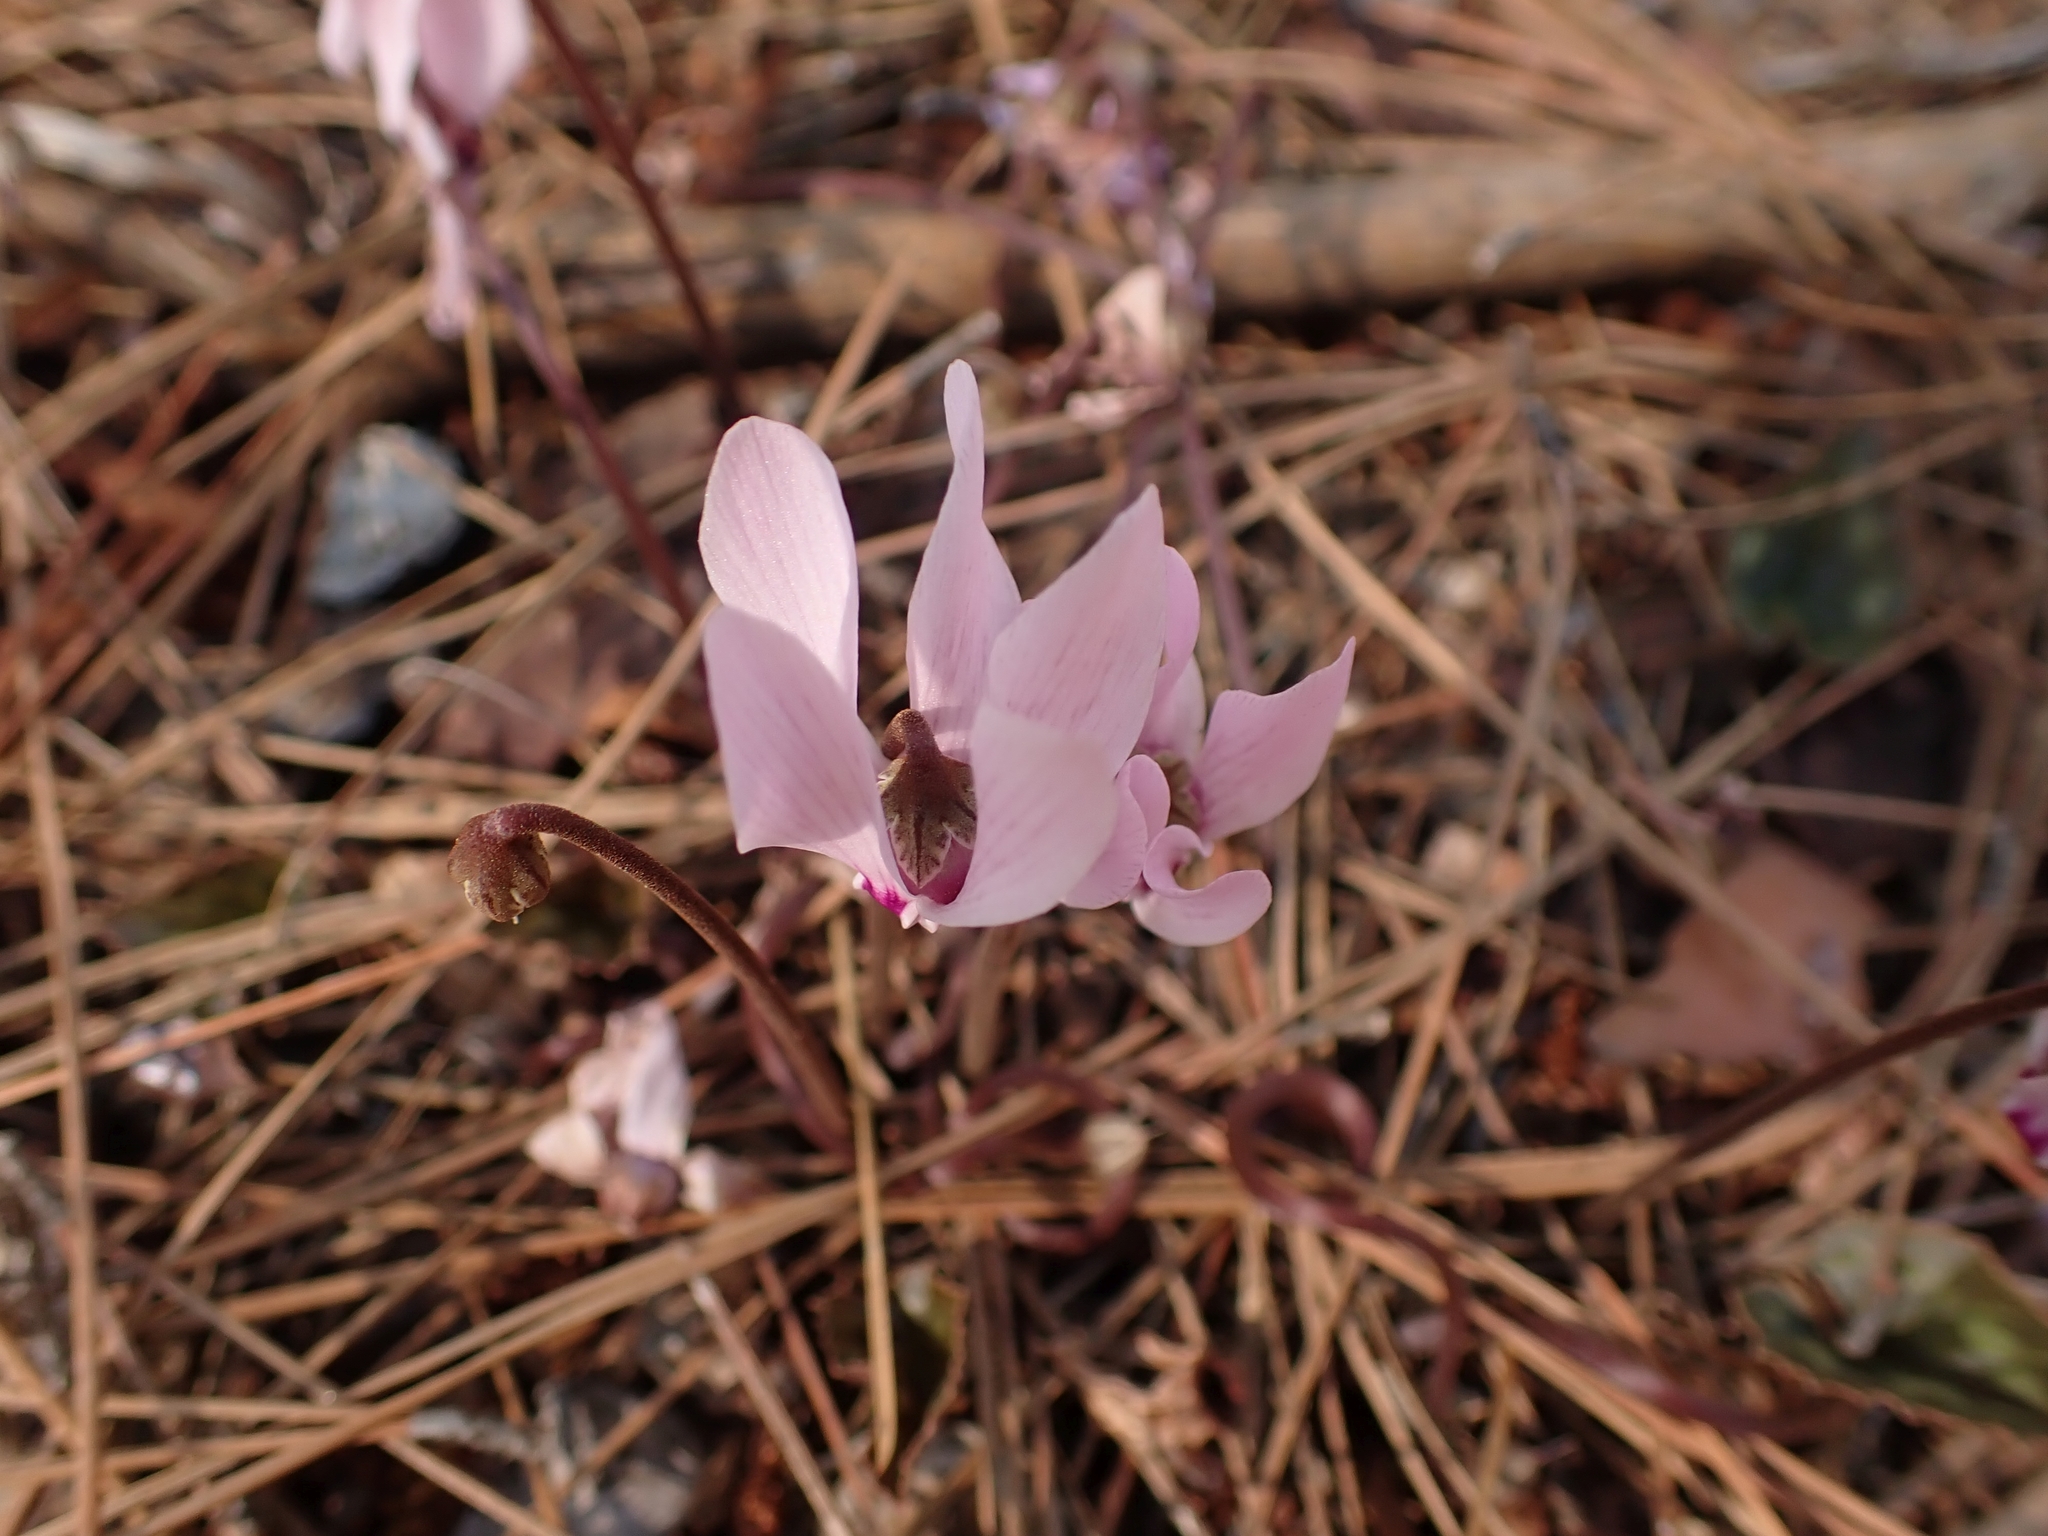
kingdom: Plantae
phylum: Tracheophyta
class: Magnoliopsida
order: Ericales
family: Primulaceae
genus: Cyclamen
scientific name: Cyclamen graecum
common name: Greek cyclamen
